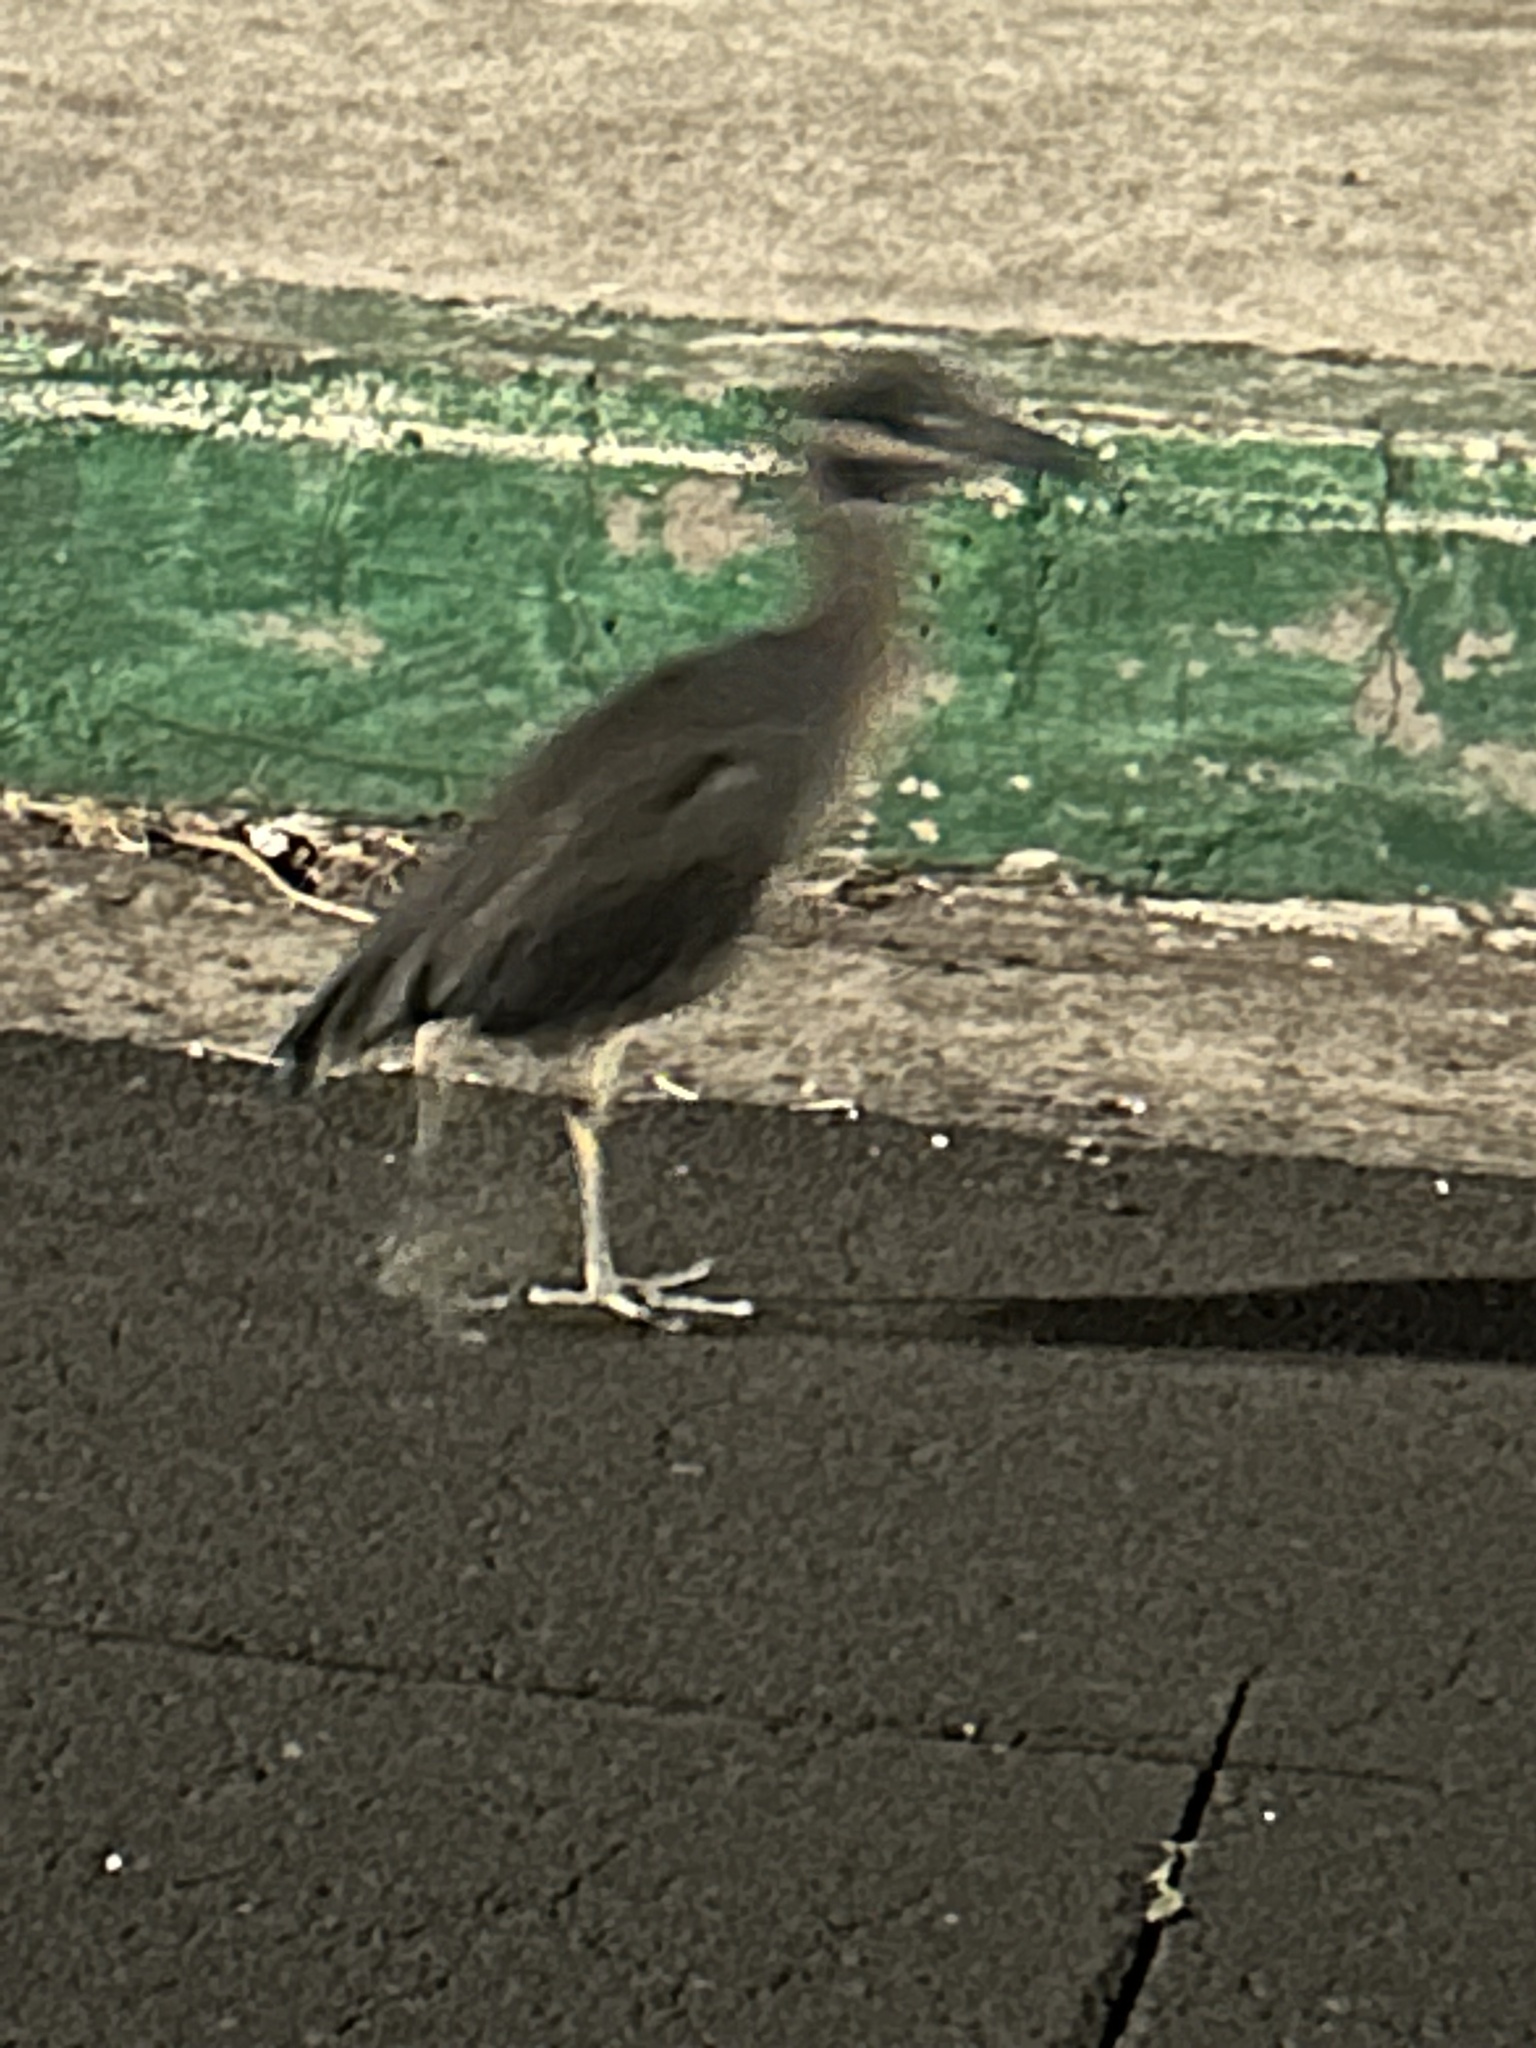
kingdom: Animalia
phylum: Chordata
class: Aves
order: Pelecaniformes
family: Ardeidae
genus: Nyctanassa
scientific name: Nyctanassa violacea
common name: Yellow-crowned night heron
